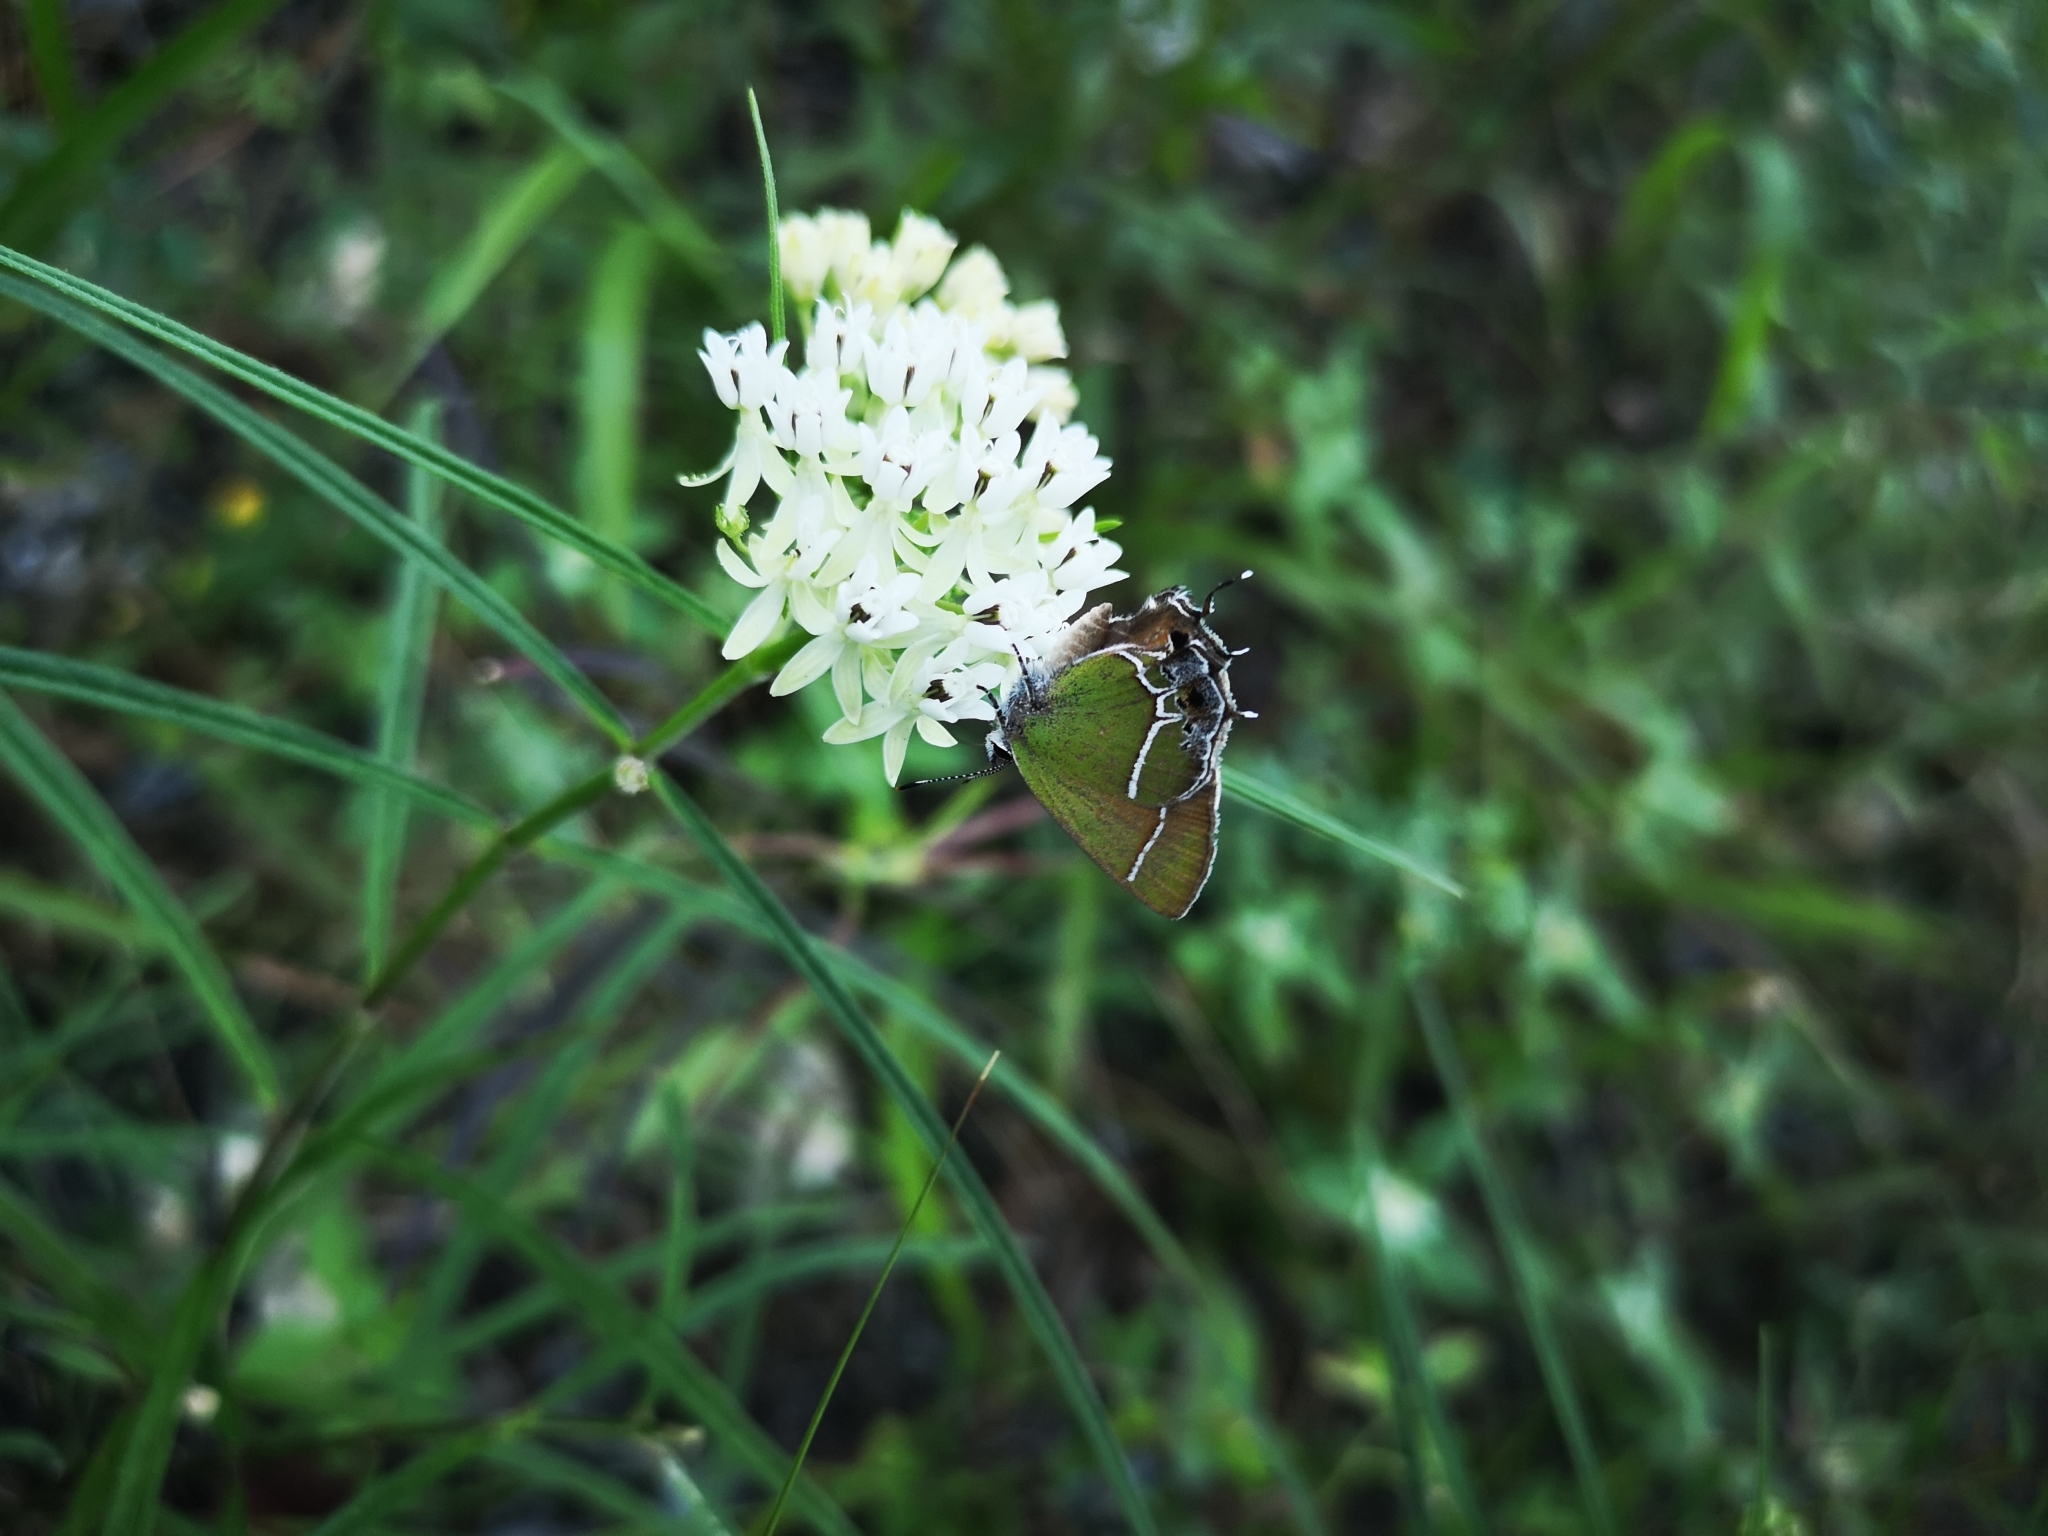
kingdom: Animalia
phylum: Arthropoda
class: Insecta
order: Lepidoptera
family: Lycaenidae
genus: Xamia
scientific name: Xamia xami
